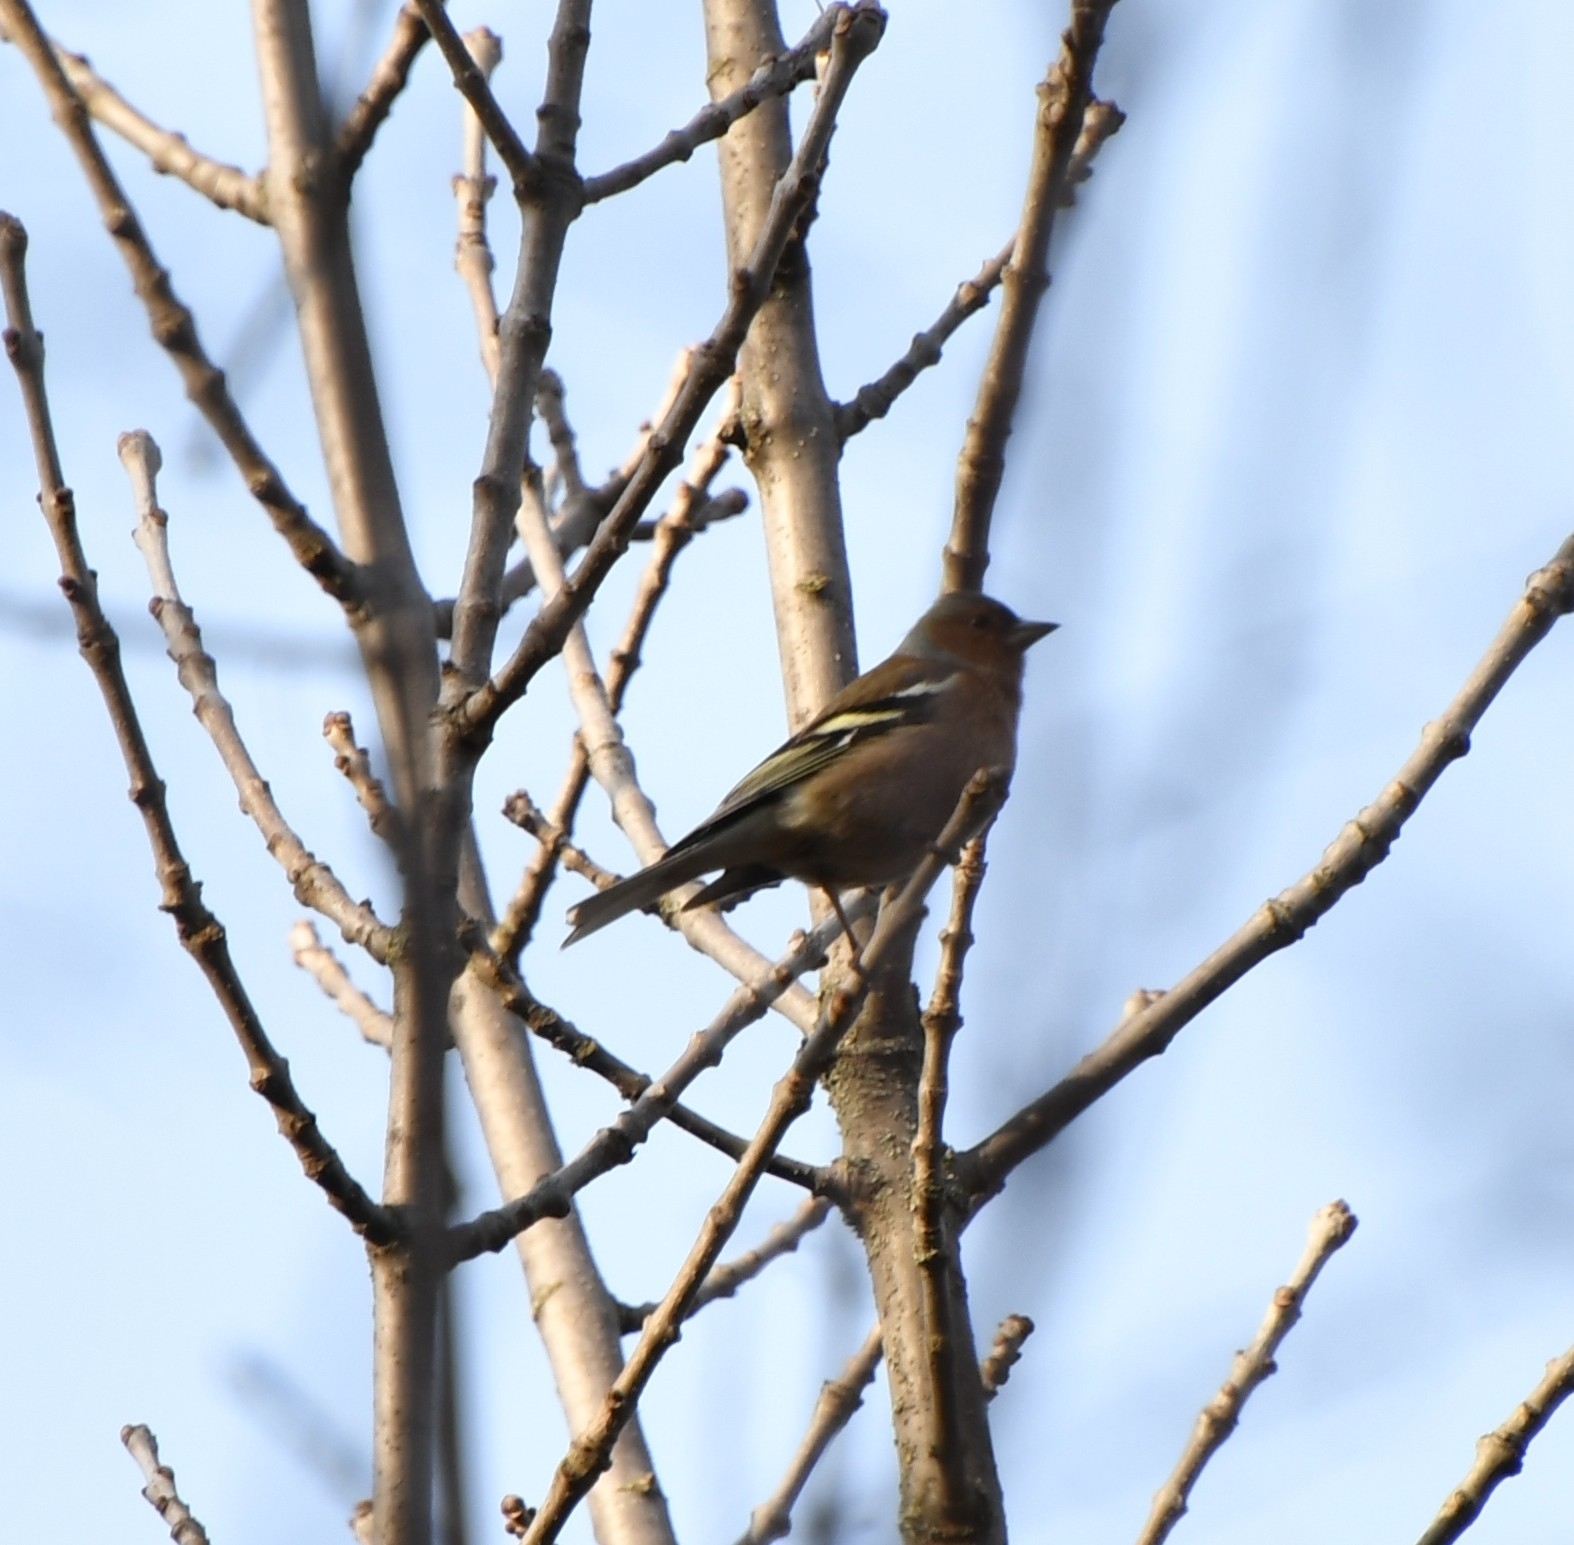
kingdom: Animalia
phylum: Chordata
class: Aves
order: Passeriformes
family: Fringillidae
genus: Fringilla
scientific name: Fringilla coelebs
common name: Common chaffinch
